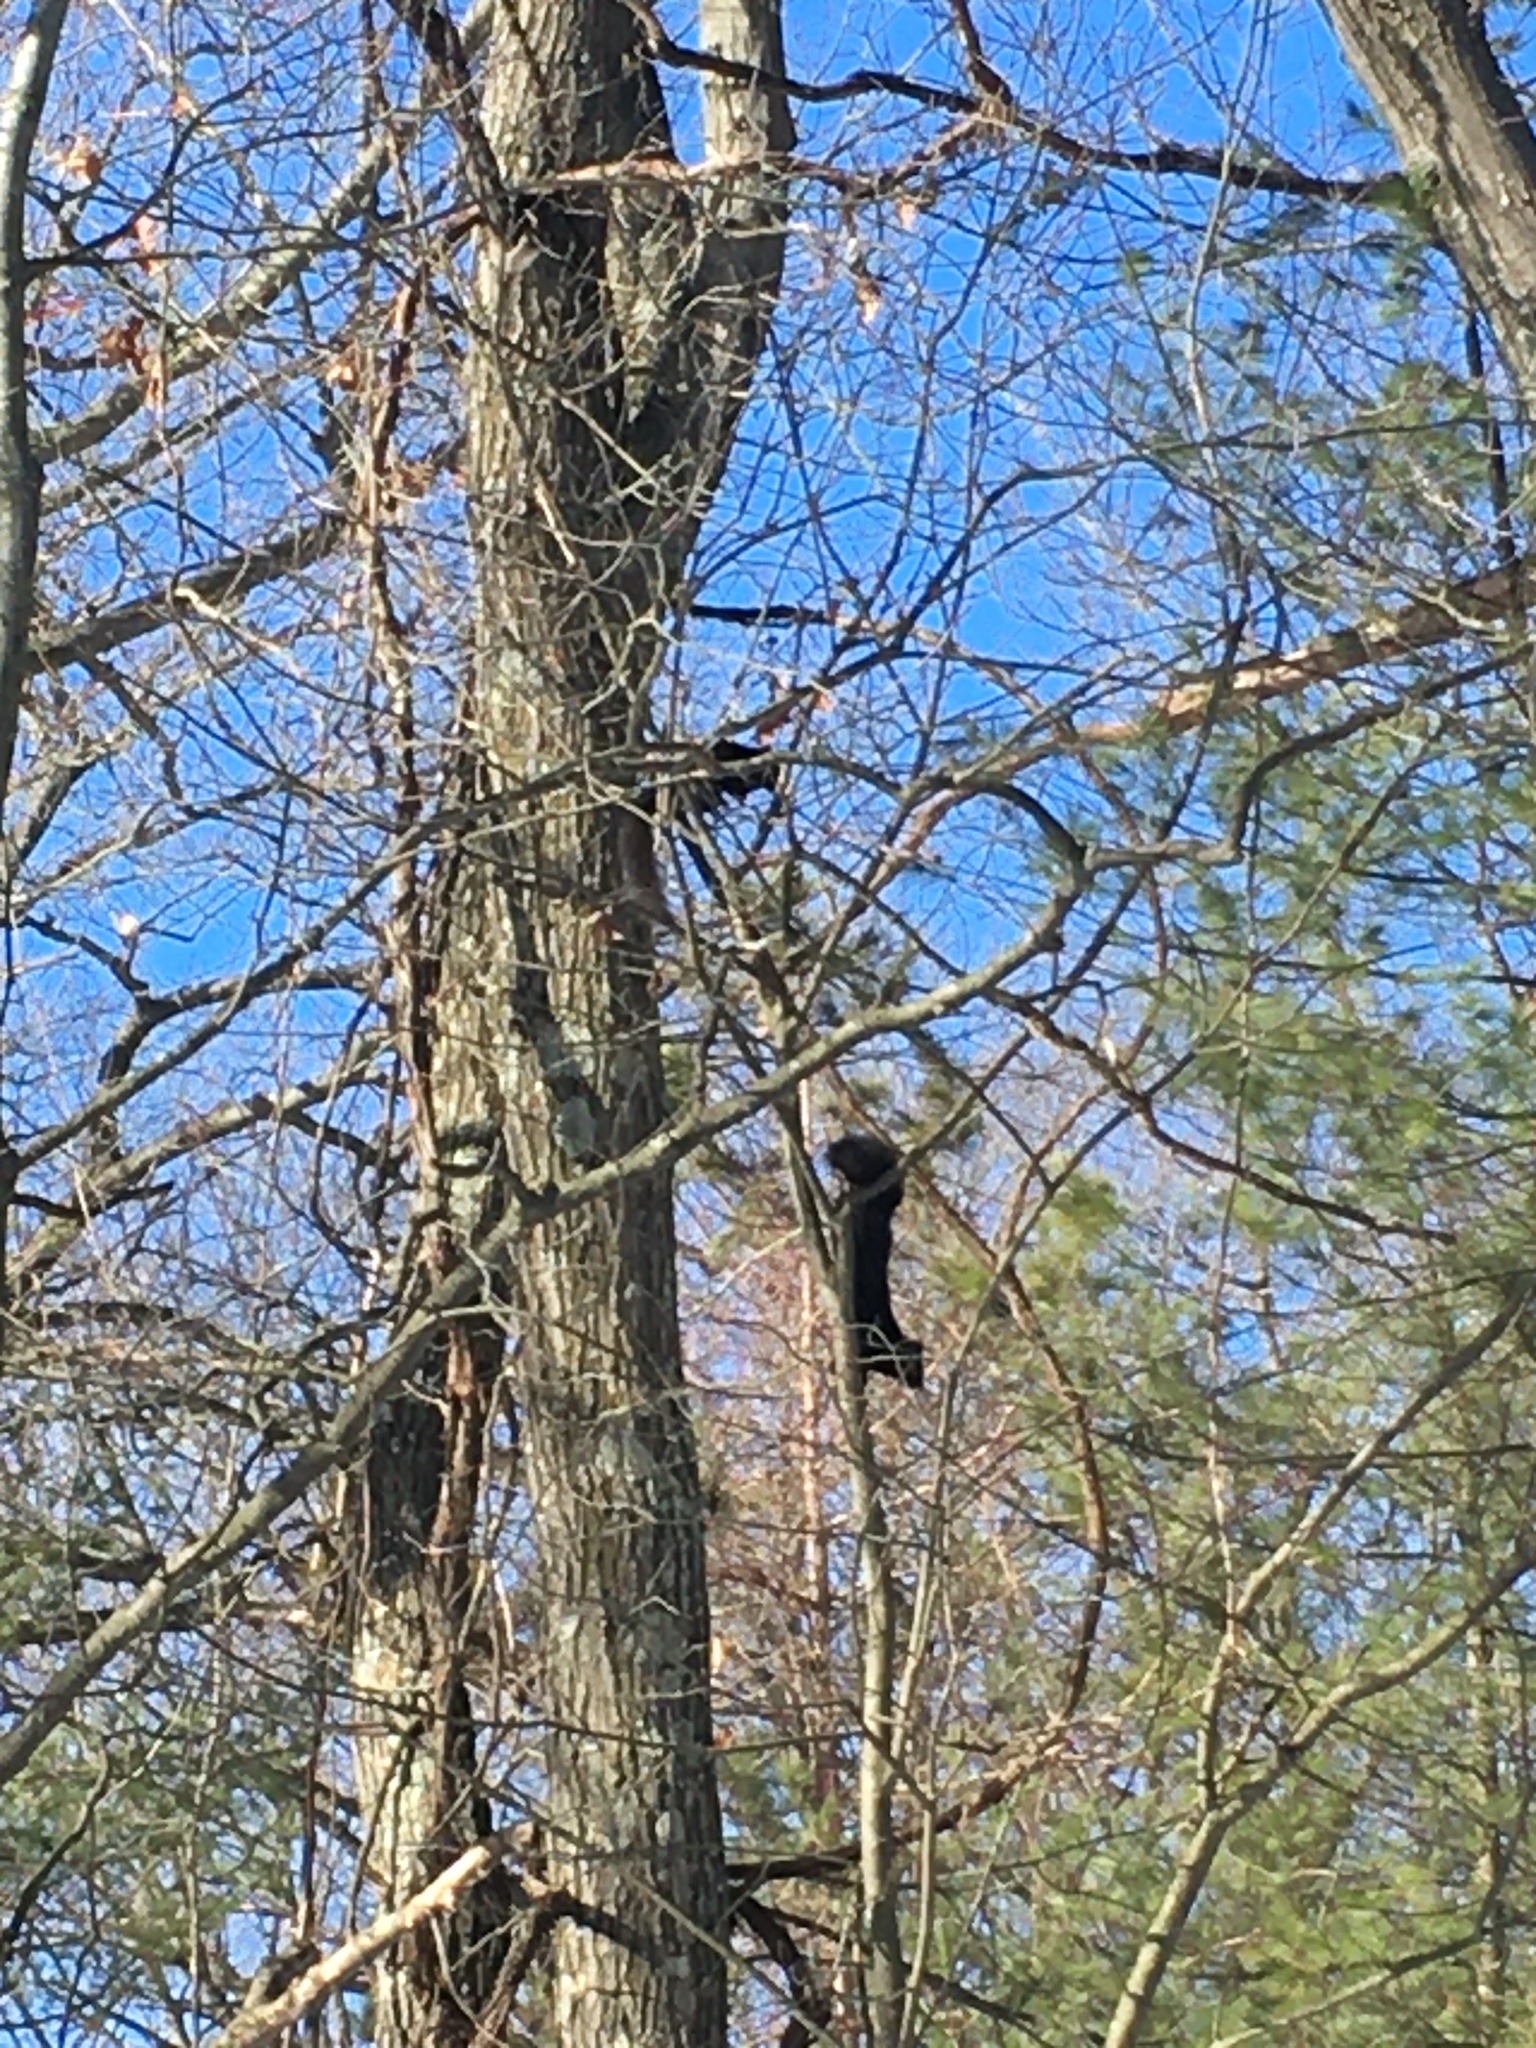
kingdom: Animalia
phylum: Chordata
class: Mammalia
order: Rodentia
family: Sciuridae
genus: Sciurus
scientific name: Sciurus carolinensis
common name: Eastern gray squirrel
